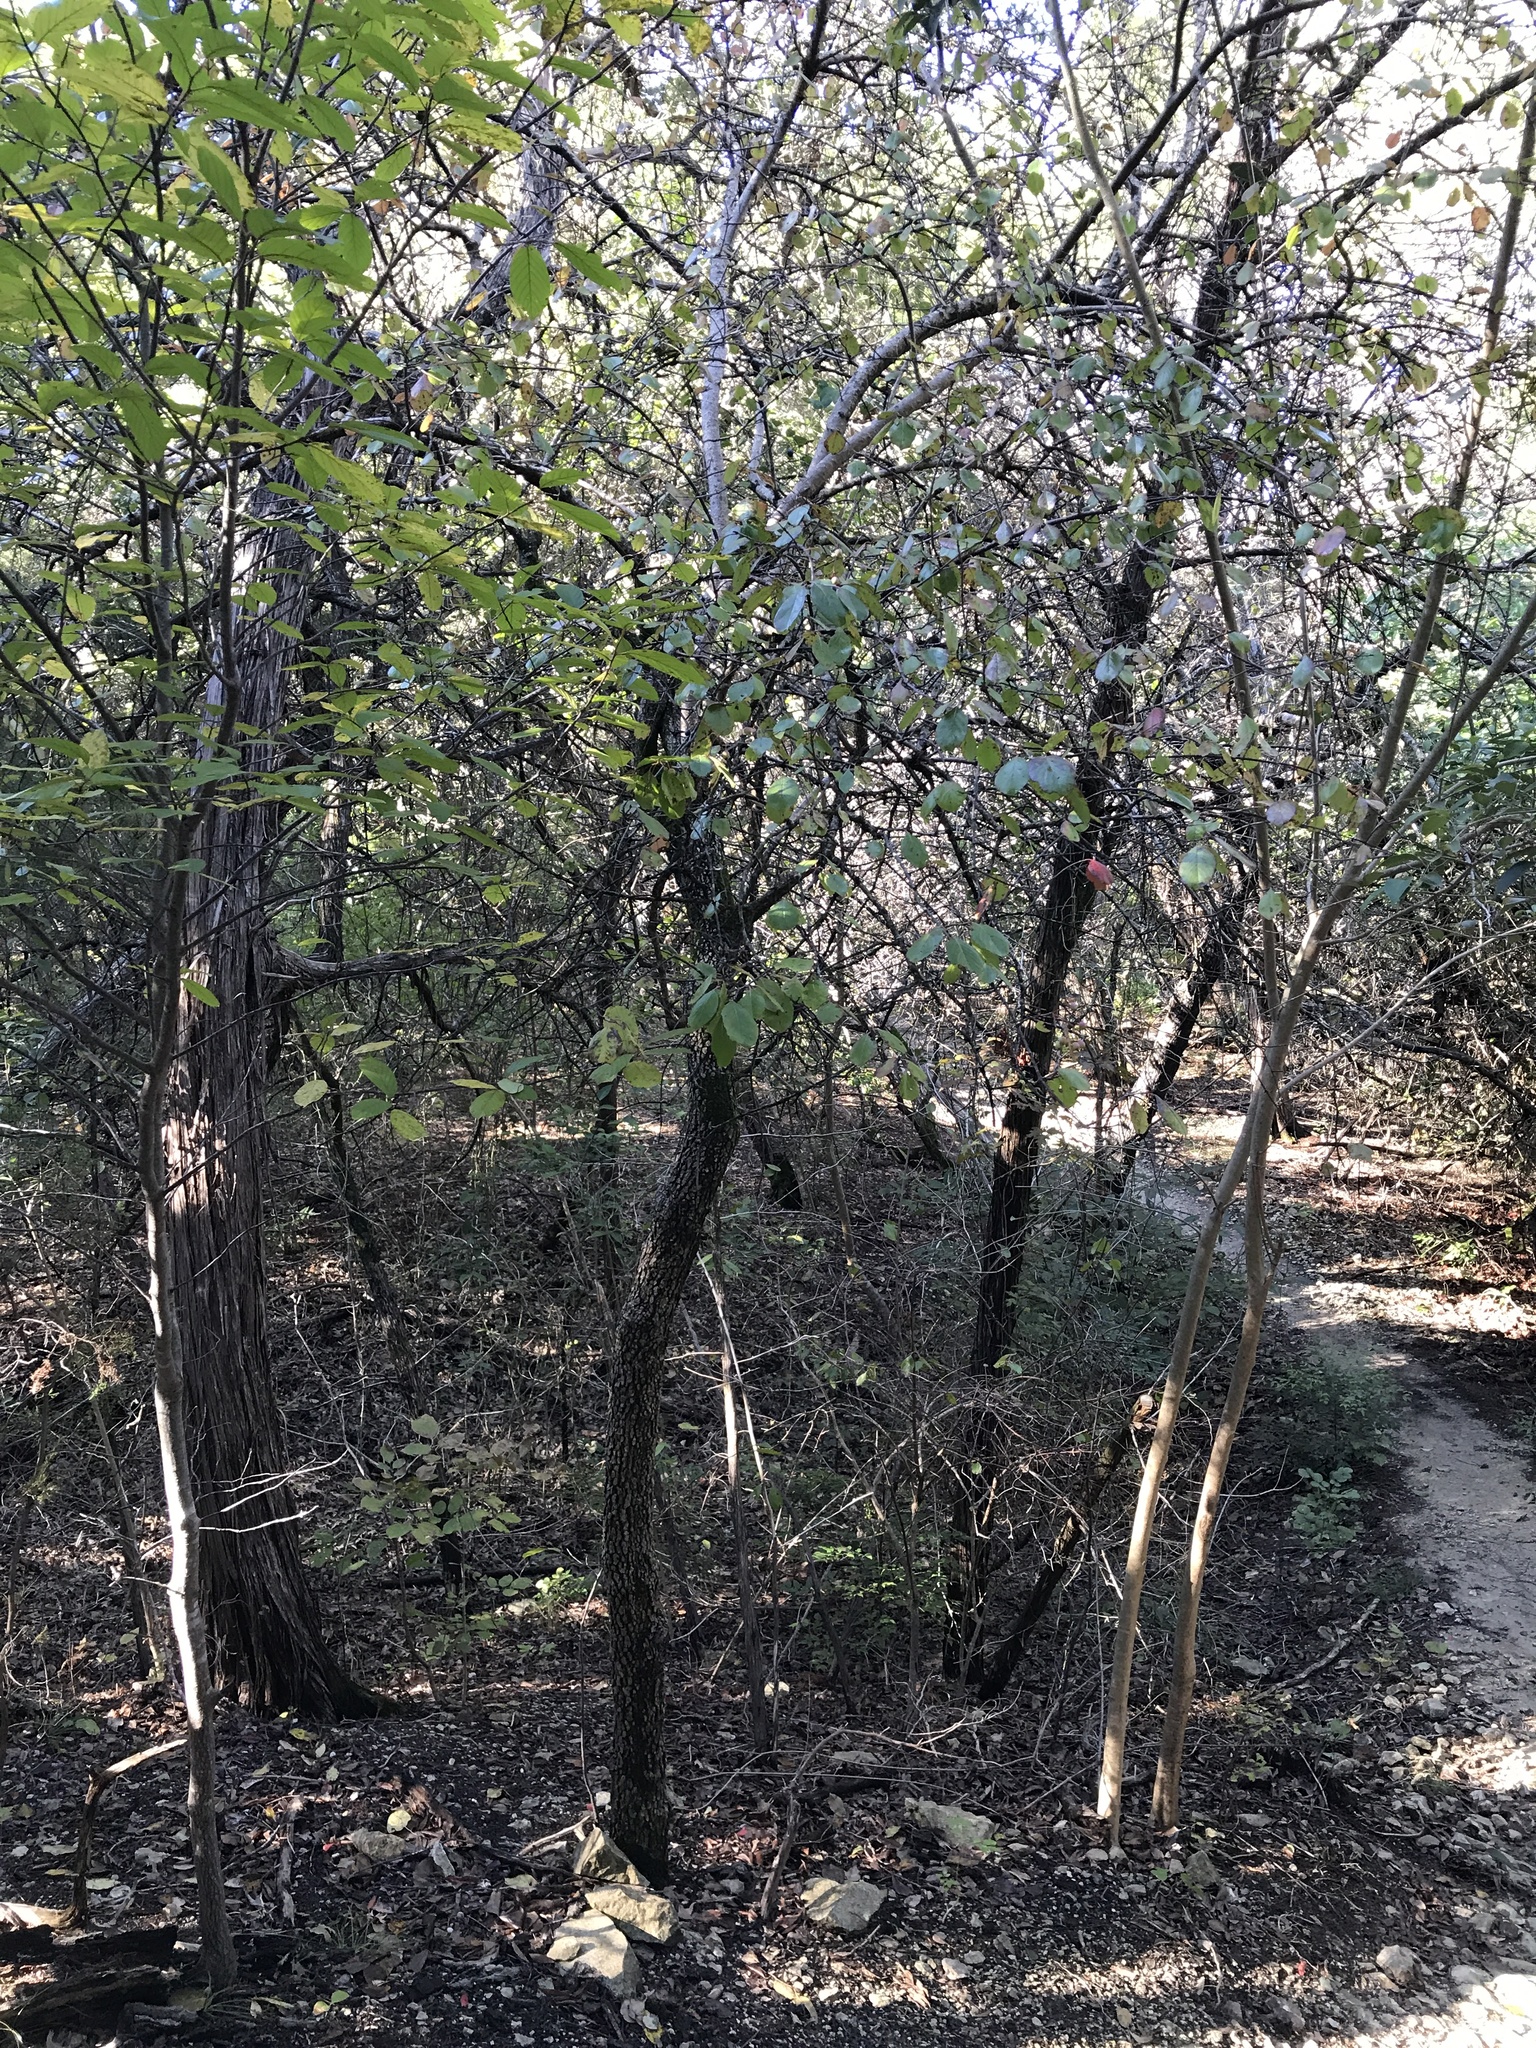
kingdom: Plantae
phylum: Tracheophyta
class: Magnoliopsida
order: Dipsacales
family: Viburnaceae
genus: Viburnum
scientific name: Viburnum rufidulum
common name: Blue haw
